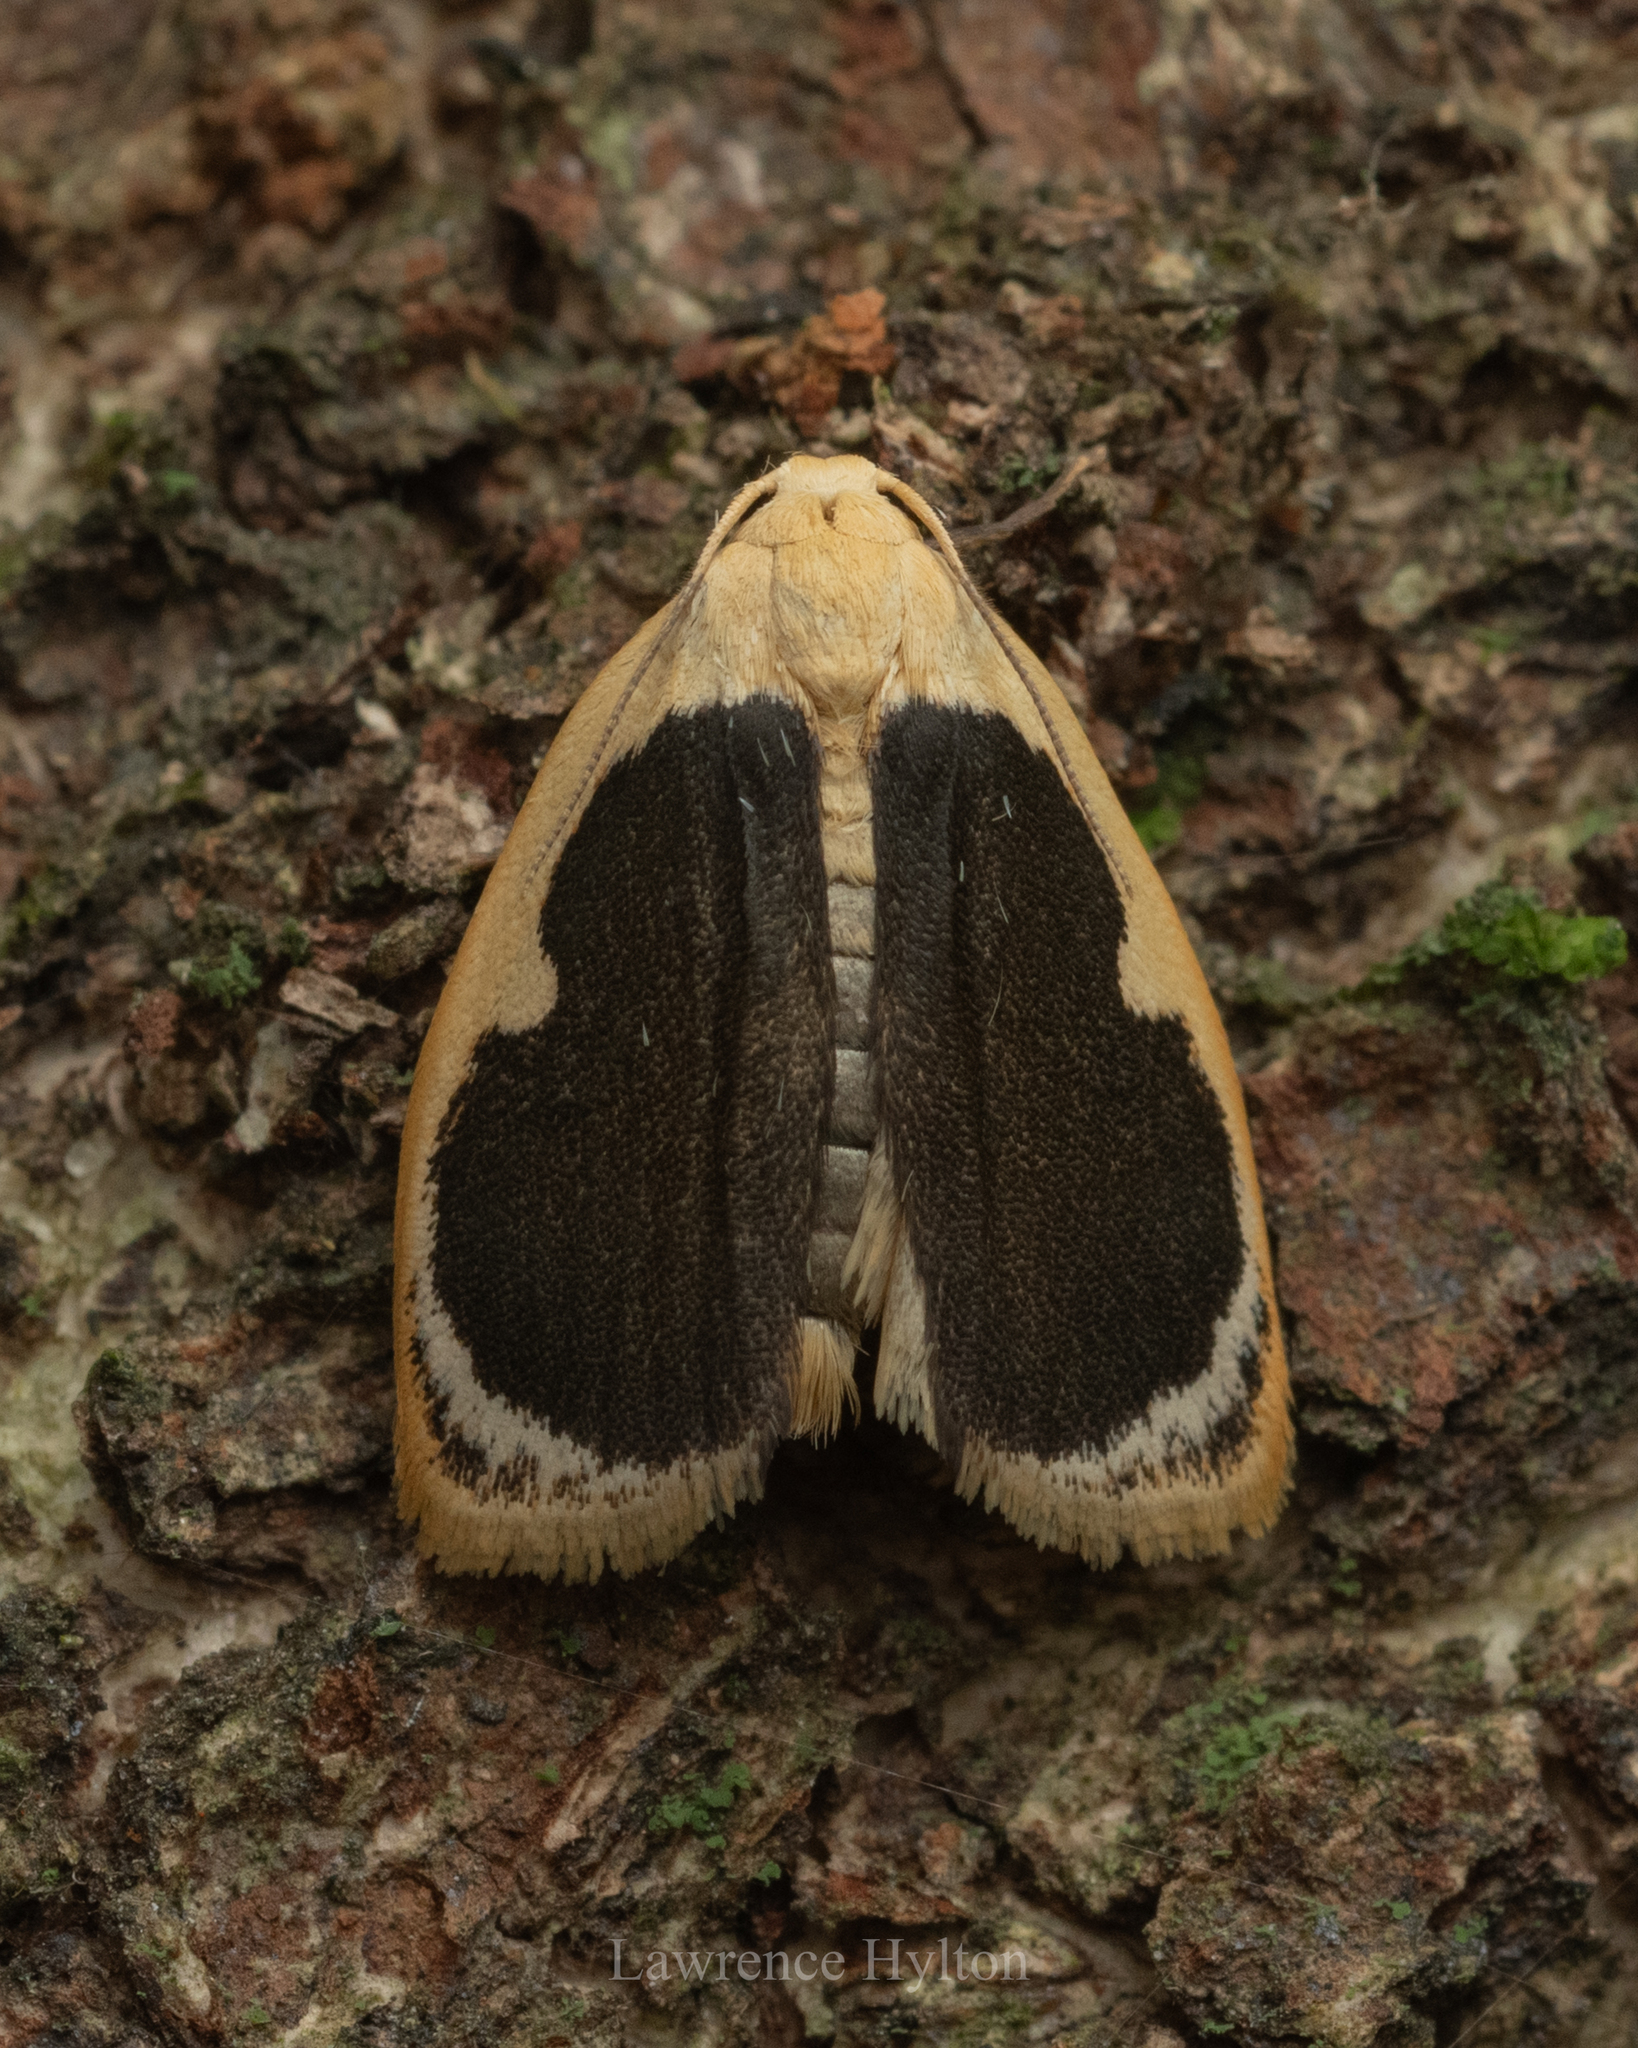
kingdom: Animalia
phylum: Arthropoda
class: Insecta
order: Lepidoptera
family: Erebidae
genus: Pseudoblabes
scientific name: Pseudoblabes oophora
